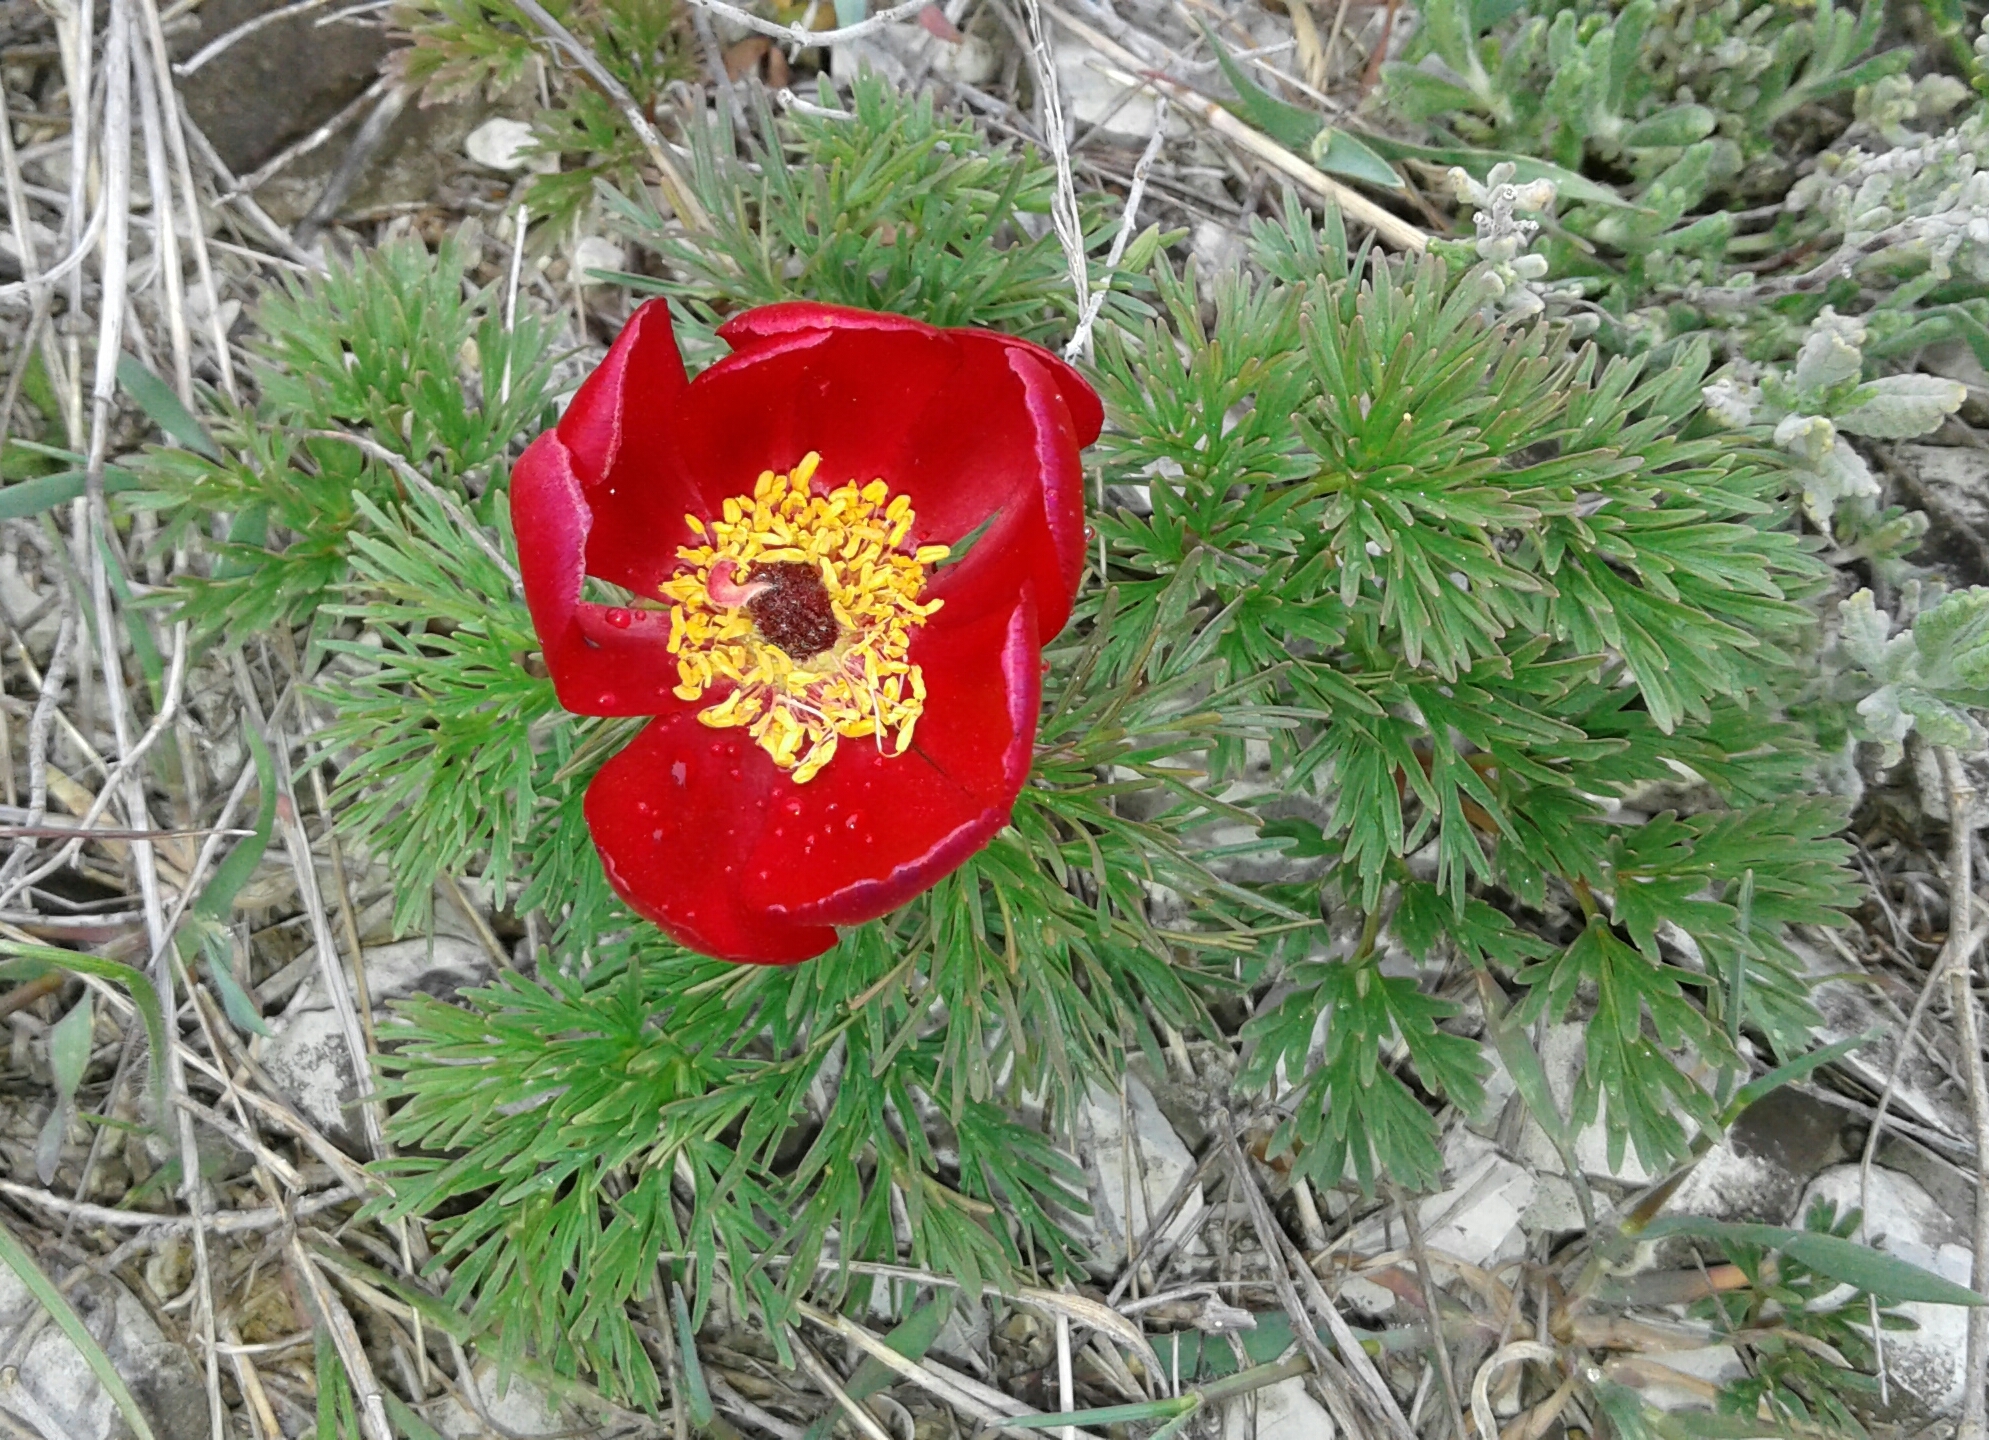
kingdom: Plantae
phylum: Tracheophyta
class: Magnoliopsida
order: Saxifragales
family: Paeoniaceae
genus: Paeonia
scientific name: Paeonia tenuifolia
